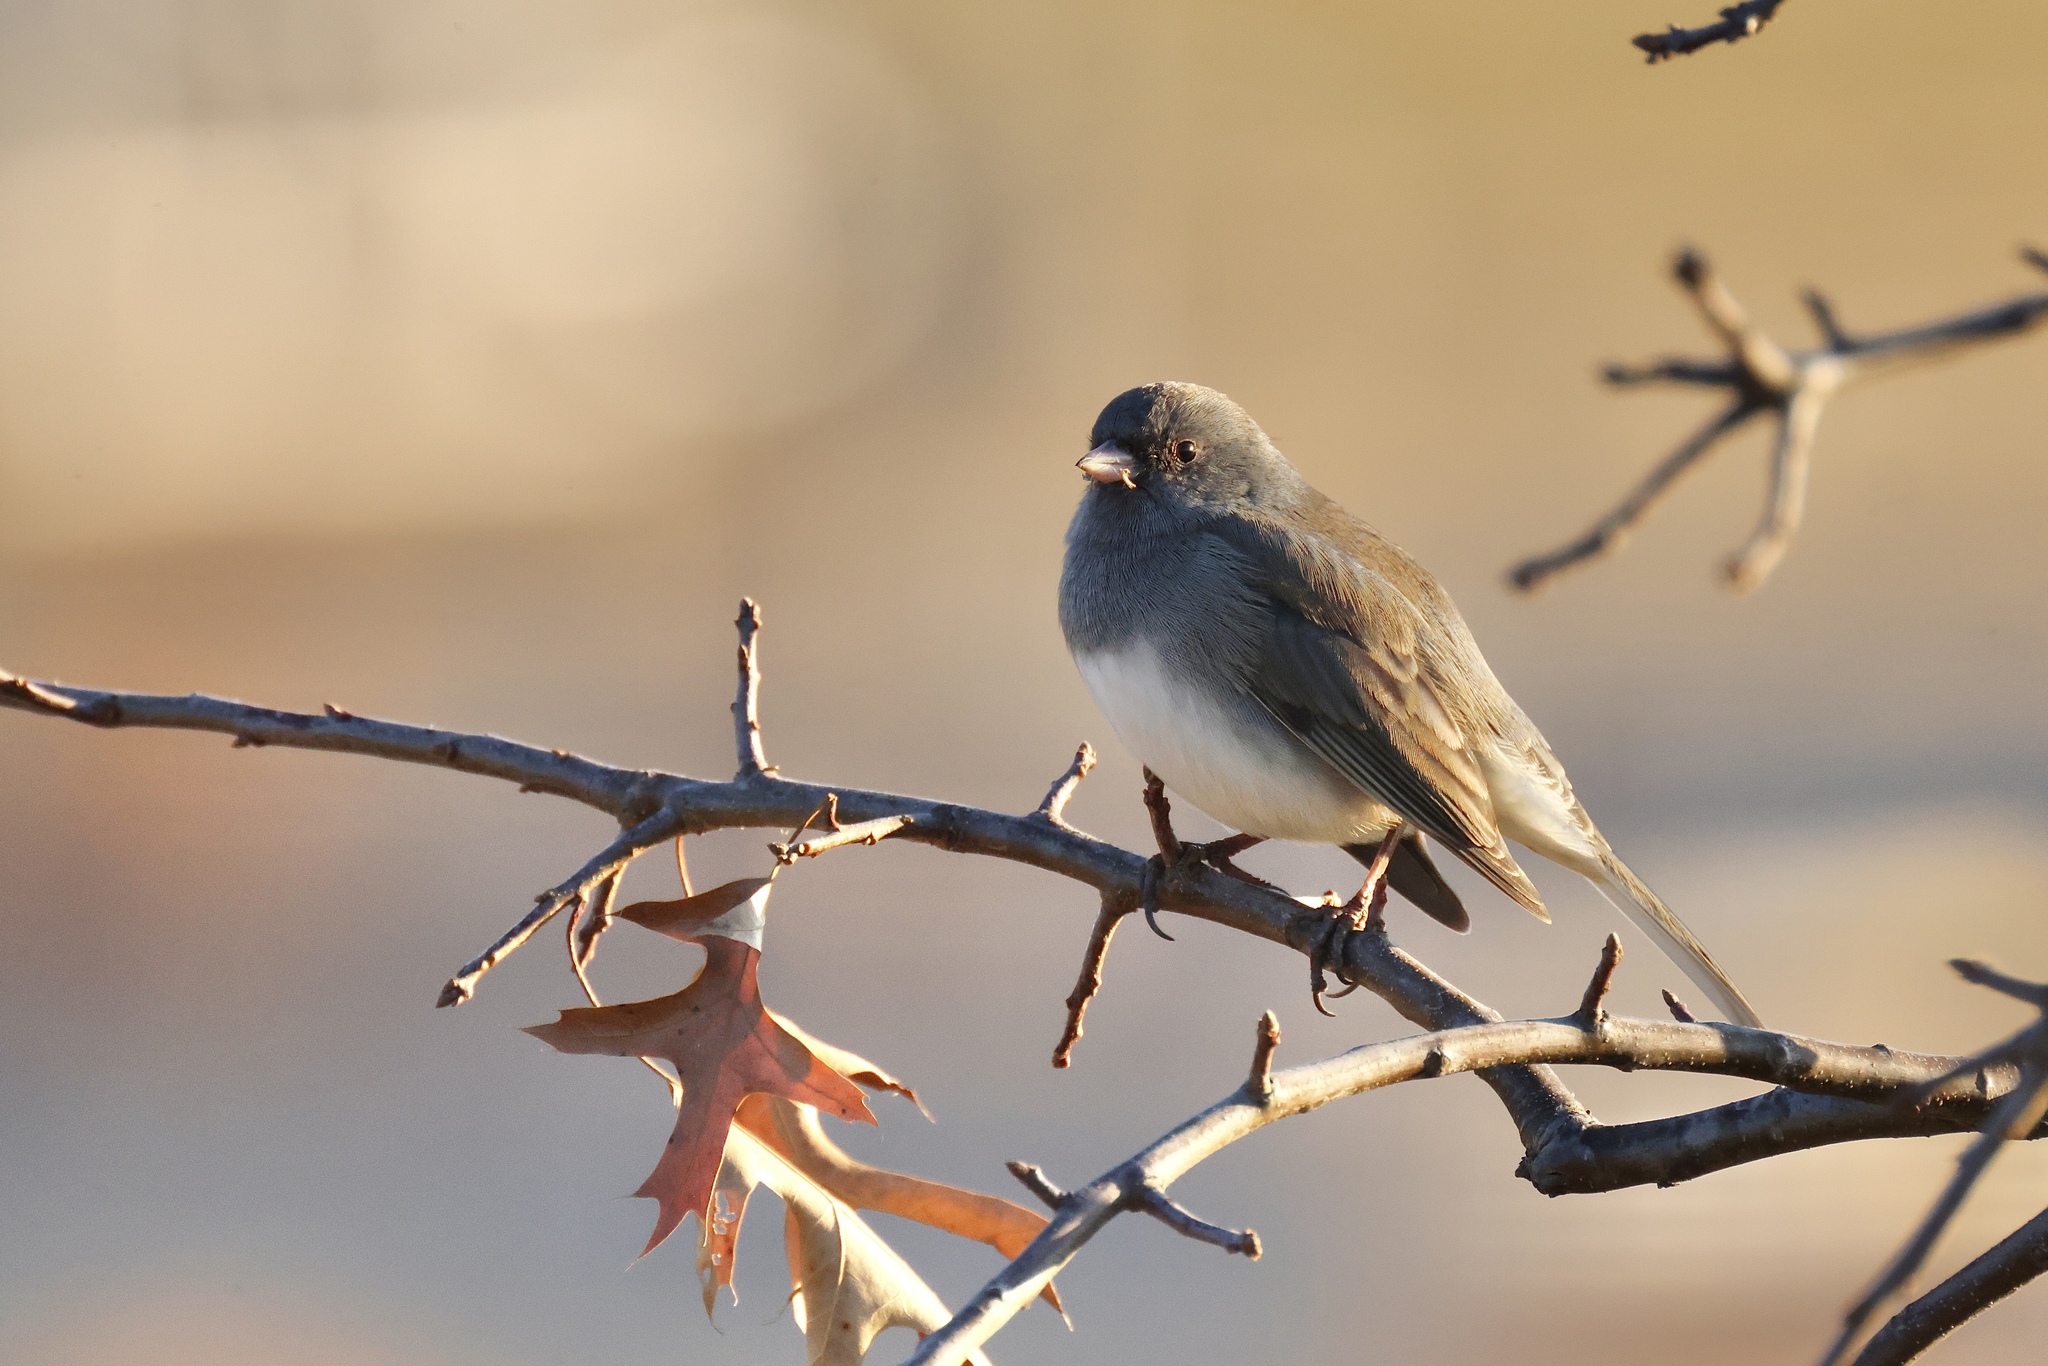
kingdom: Animalia
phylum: Chordata
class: Aves
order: Passeriformes
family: Passerellidae
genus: Junco
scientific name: Junco hyemalis
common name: Dark-eyed junco
